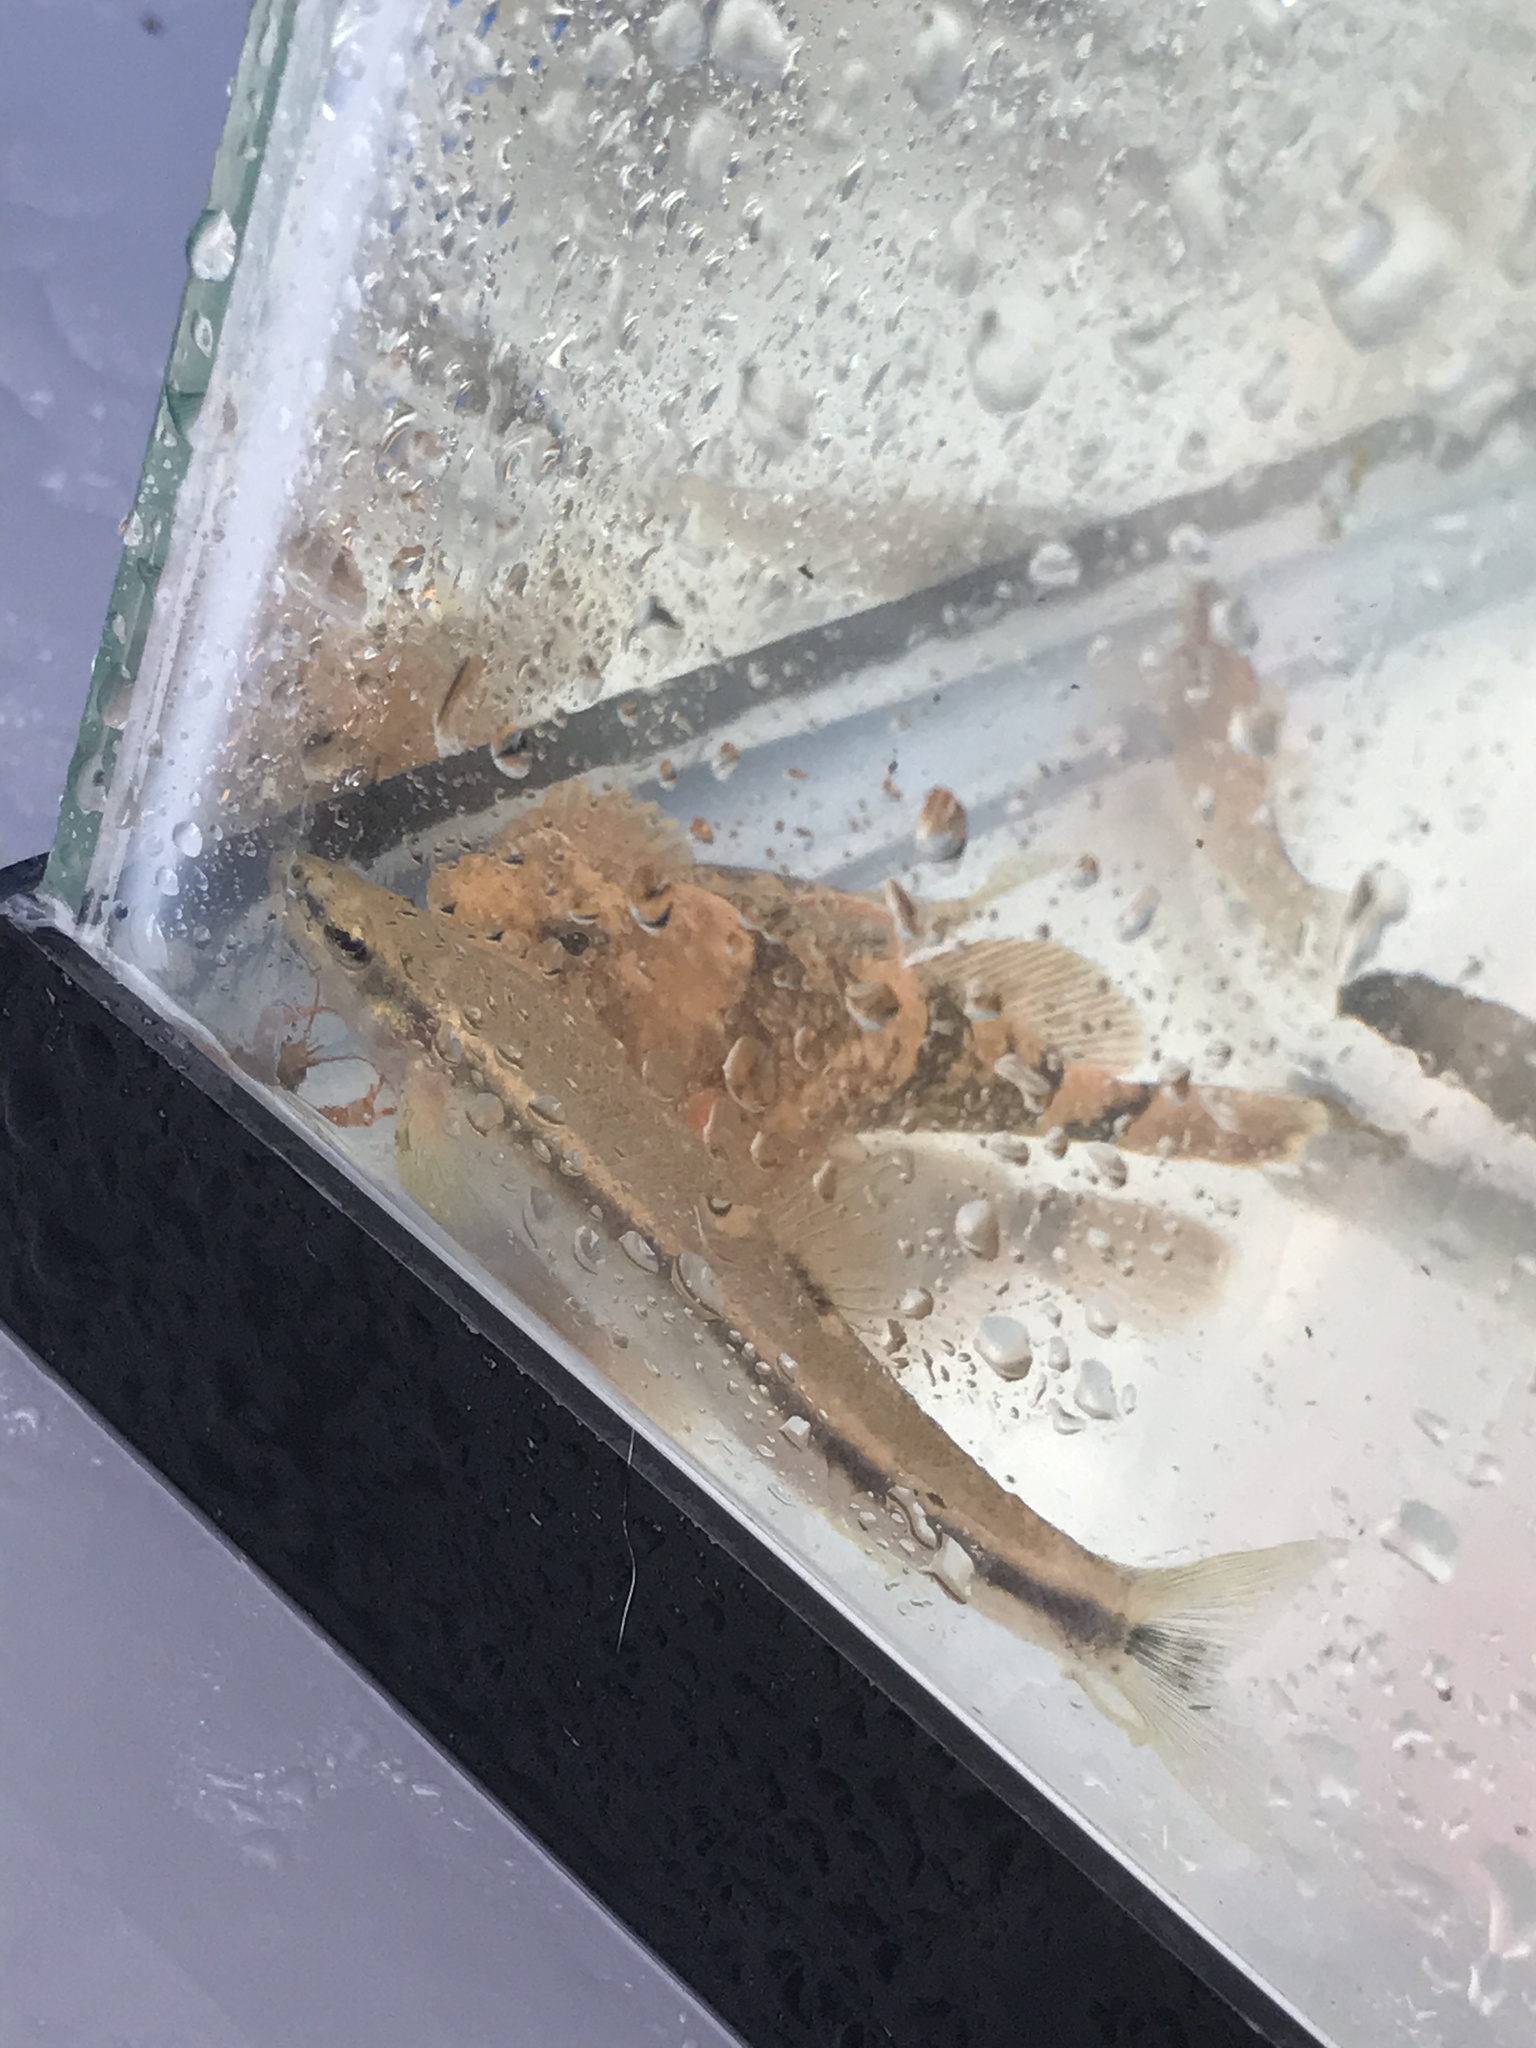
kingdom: Animalia
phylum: Chordata
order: Cypriniformes
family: Cyprinidae
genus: Rhinichthys
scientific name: Rhinichthys obtusus
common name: Western blacknose dace
